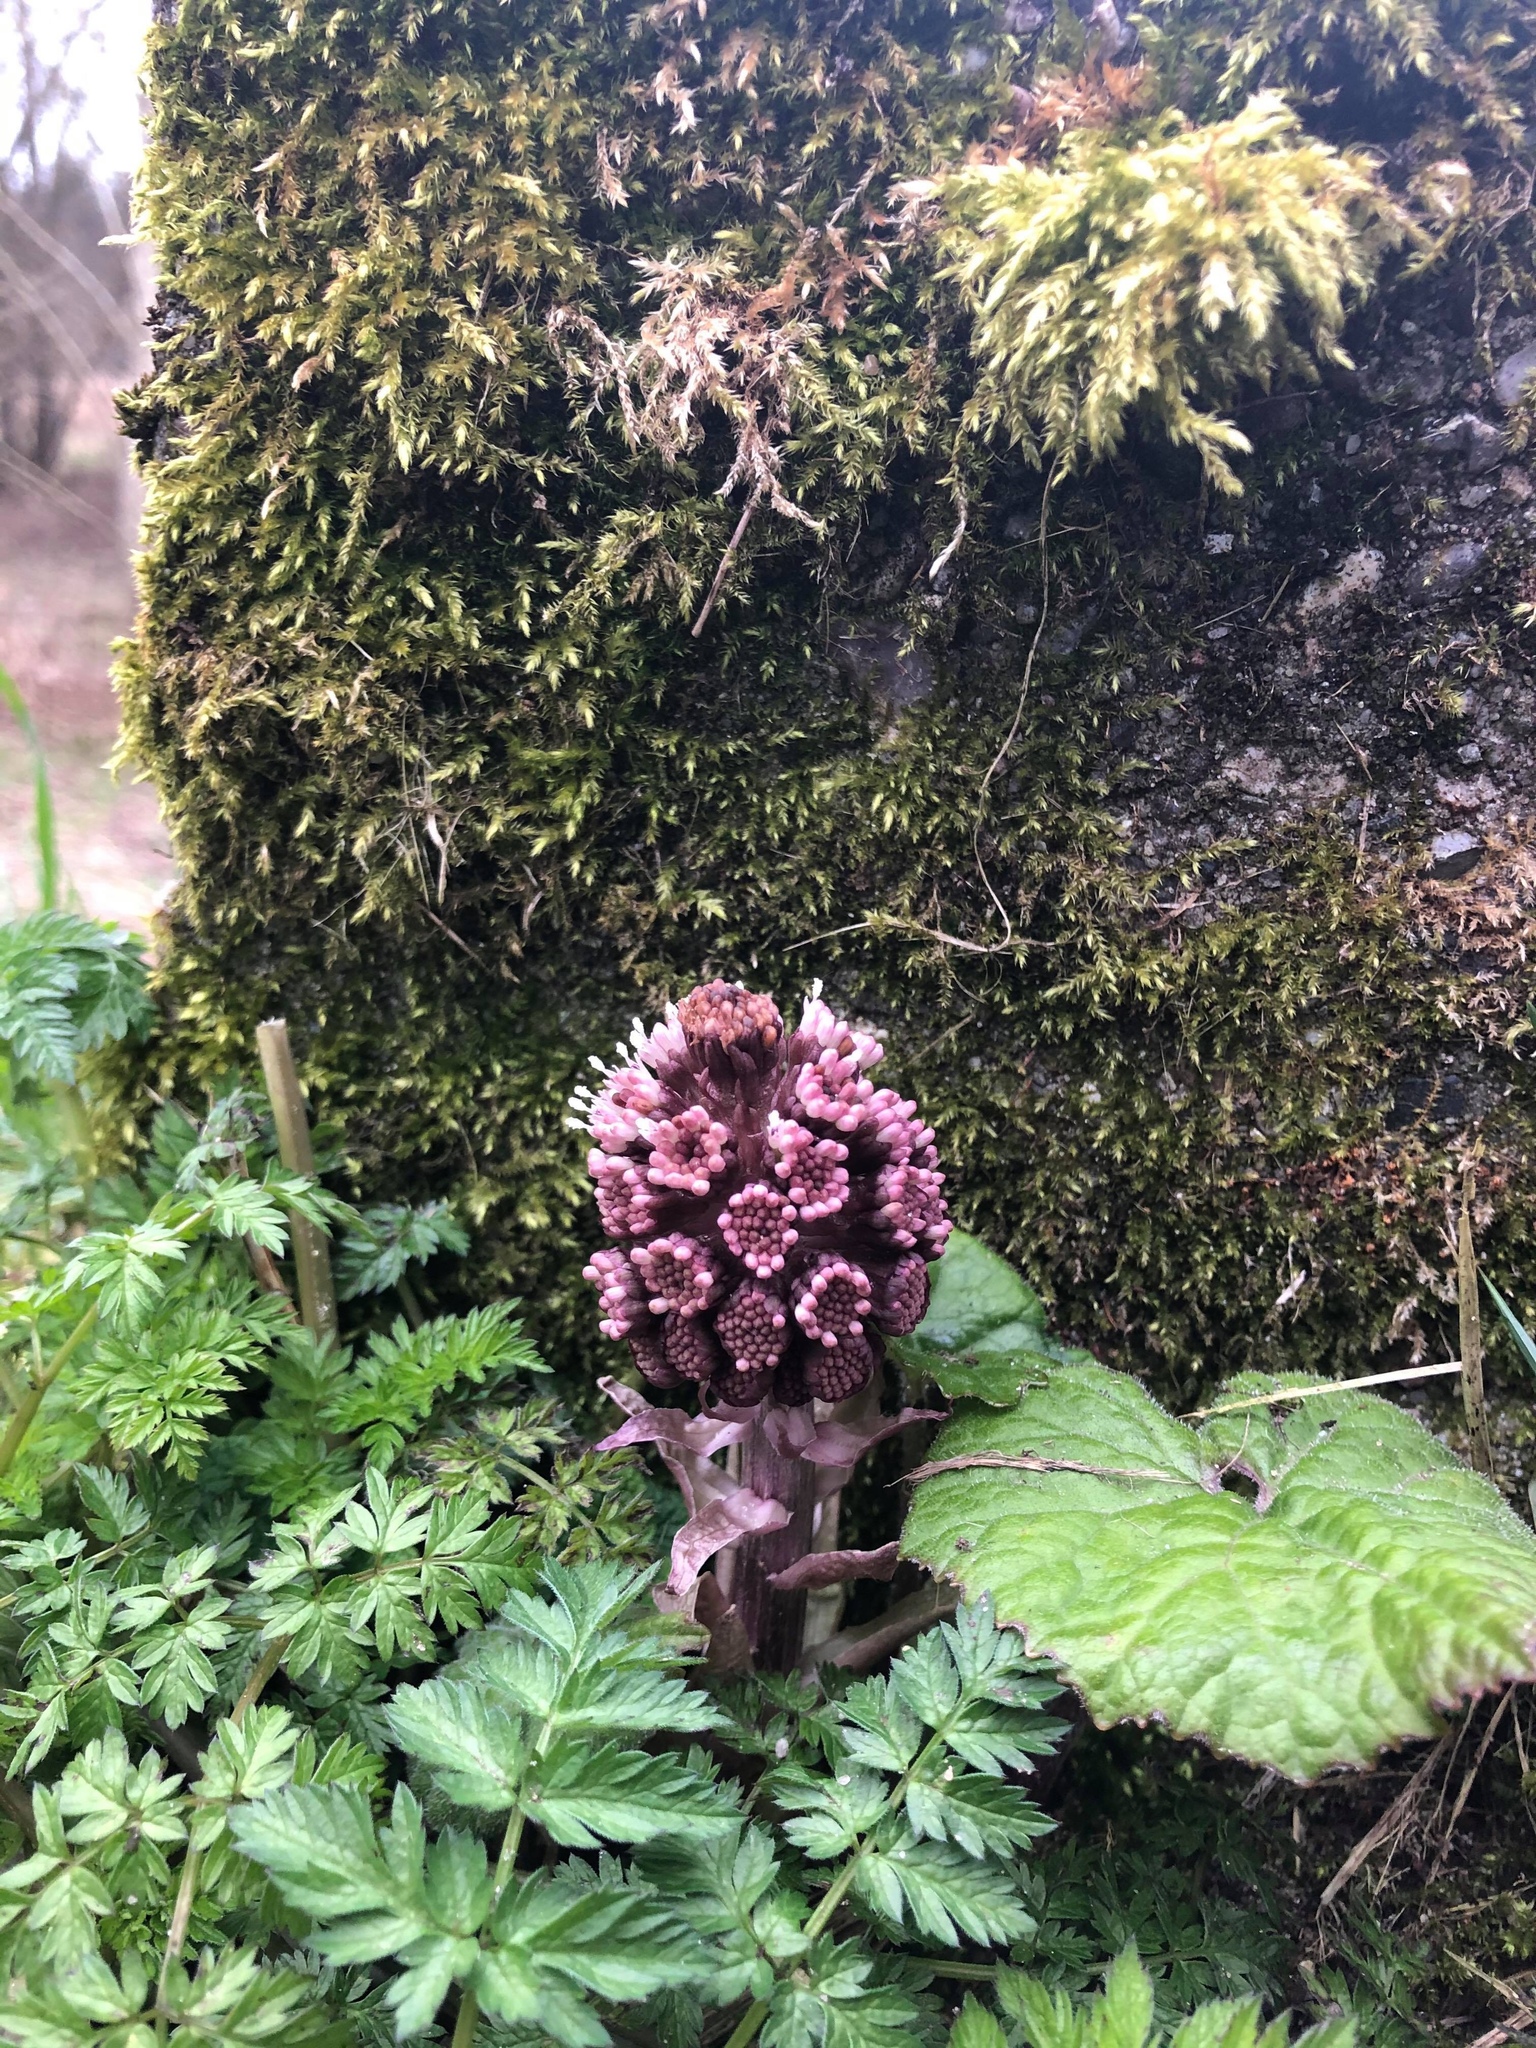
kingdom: Plantae
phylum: Tracheophyta
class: Magnoliopsida
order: Asterales
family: Asteraceae
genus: Petasites
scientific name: Petasites hybridus
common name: Butterbur
